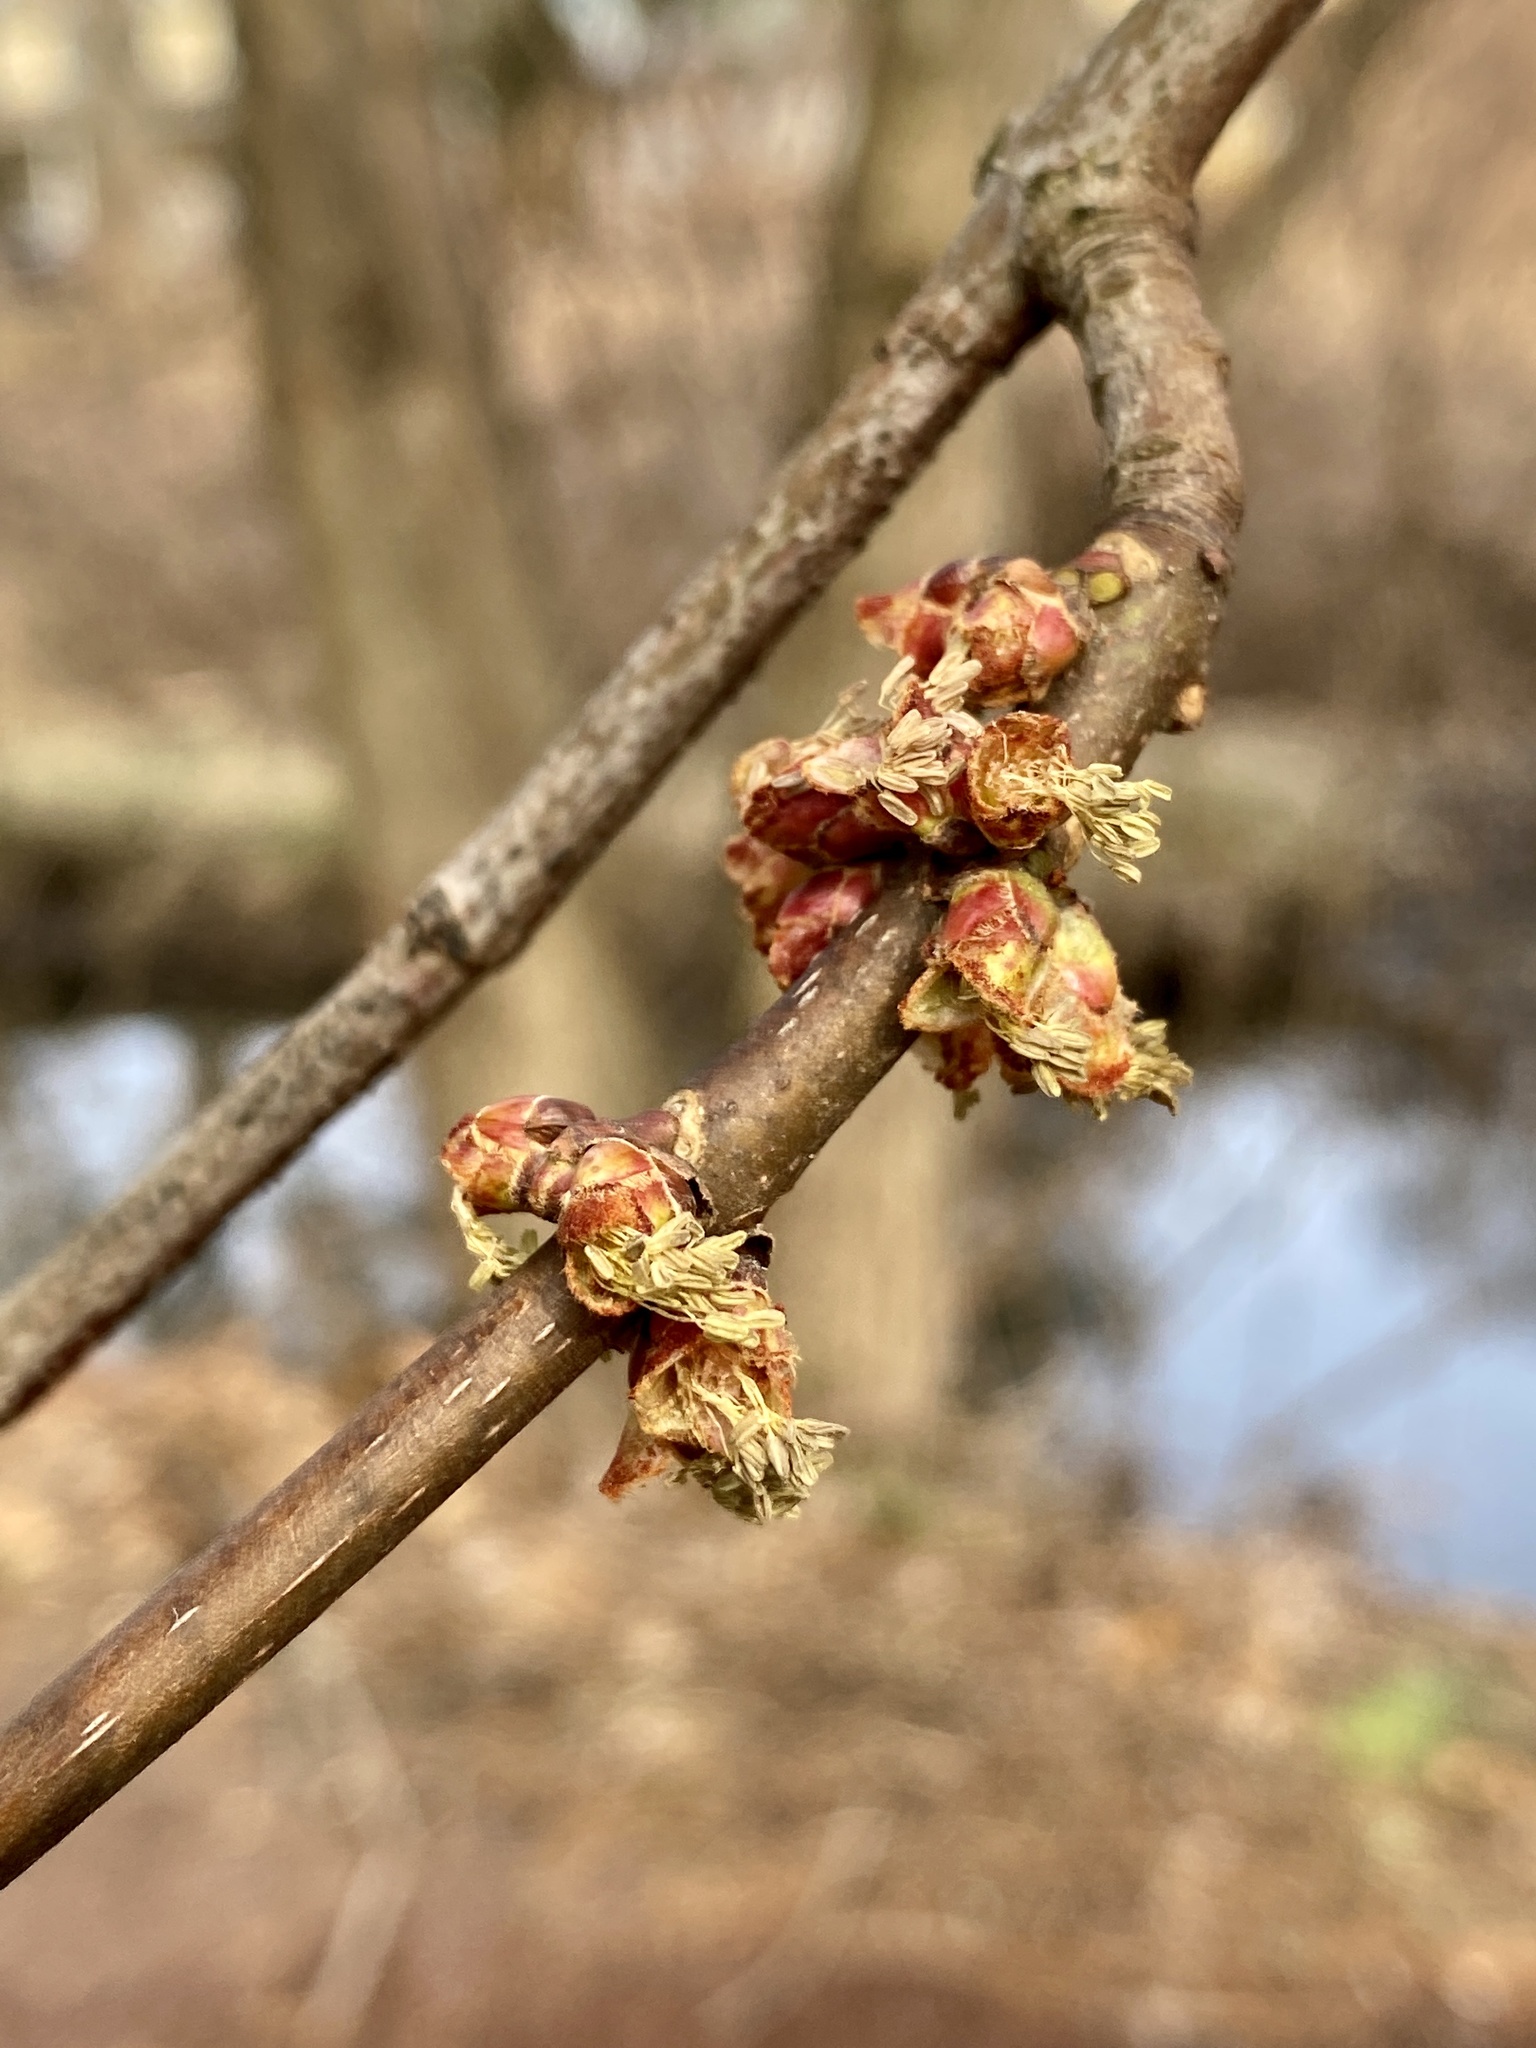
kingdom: Plantae
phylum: Tracheophyta
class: Magnoliopsida
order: Sapindales
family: Sapindaceae
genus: Acer
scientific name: Acer saccharinum
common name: Silver maple
